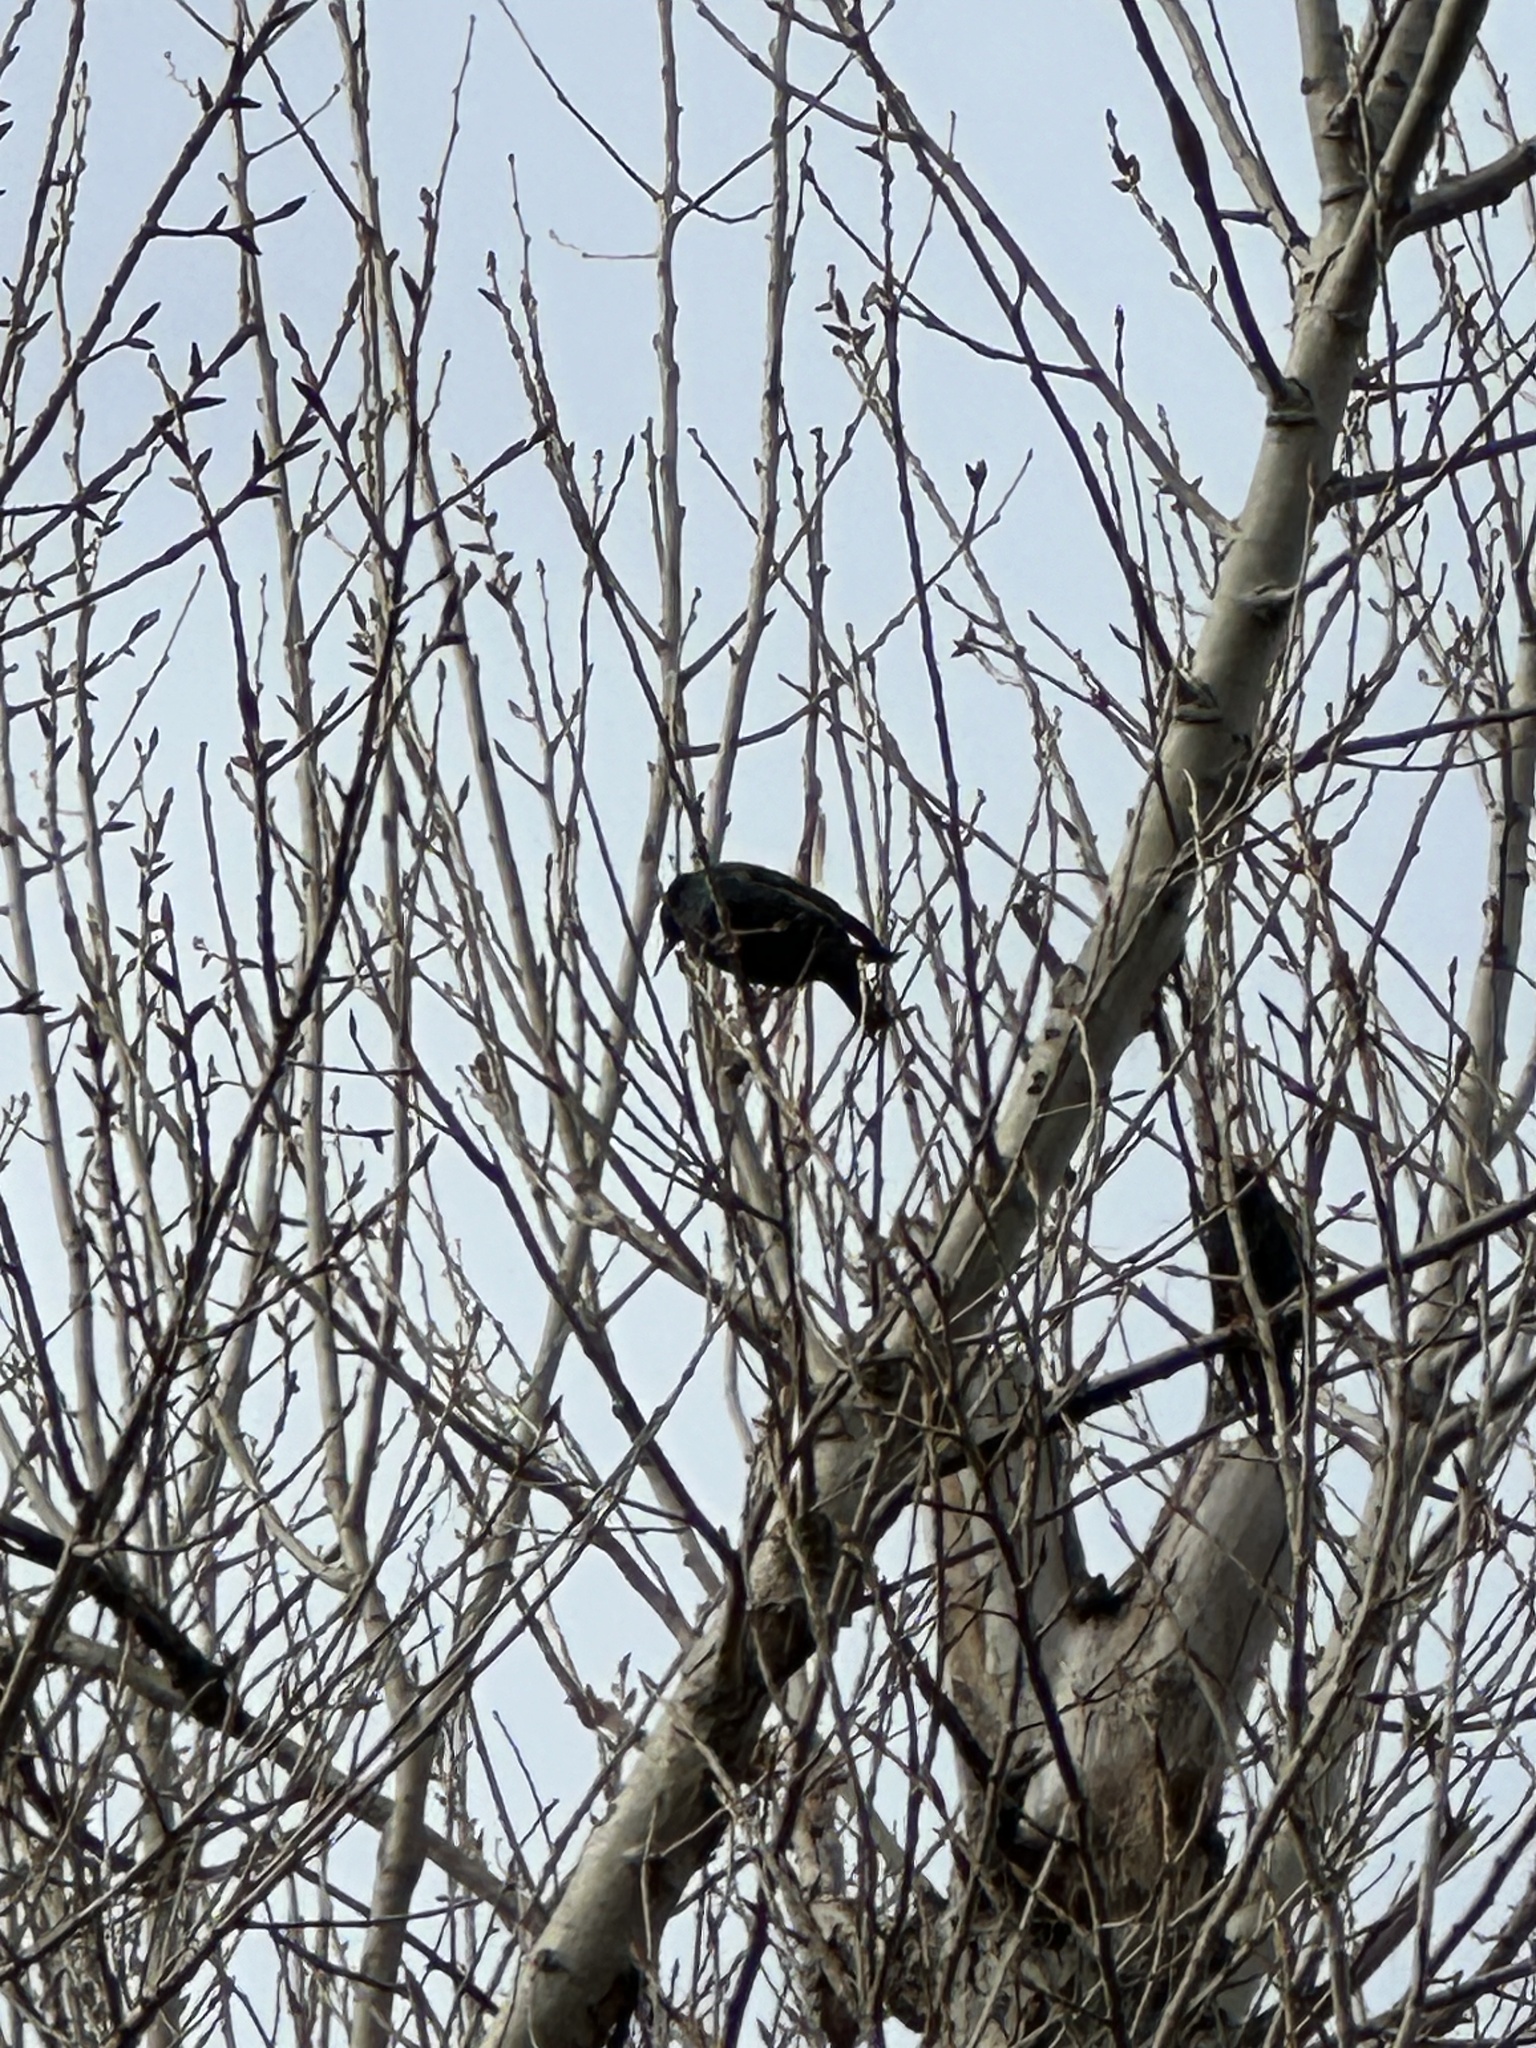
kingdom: Animalia
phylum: Chordata
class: Aves
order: Passeriformes
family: Sturnidae
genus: Sturnus
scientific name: Sturnus vulgaris
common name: Common starling
